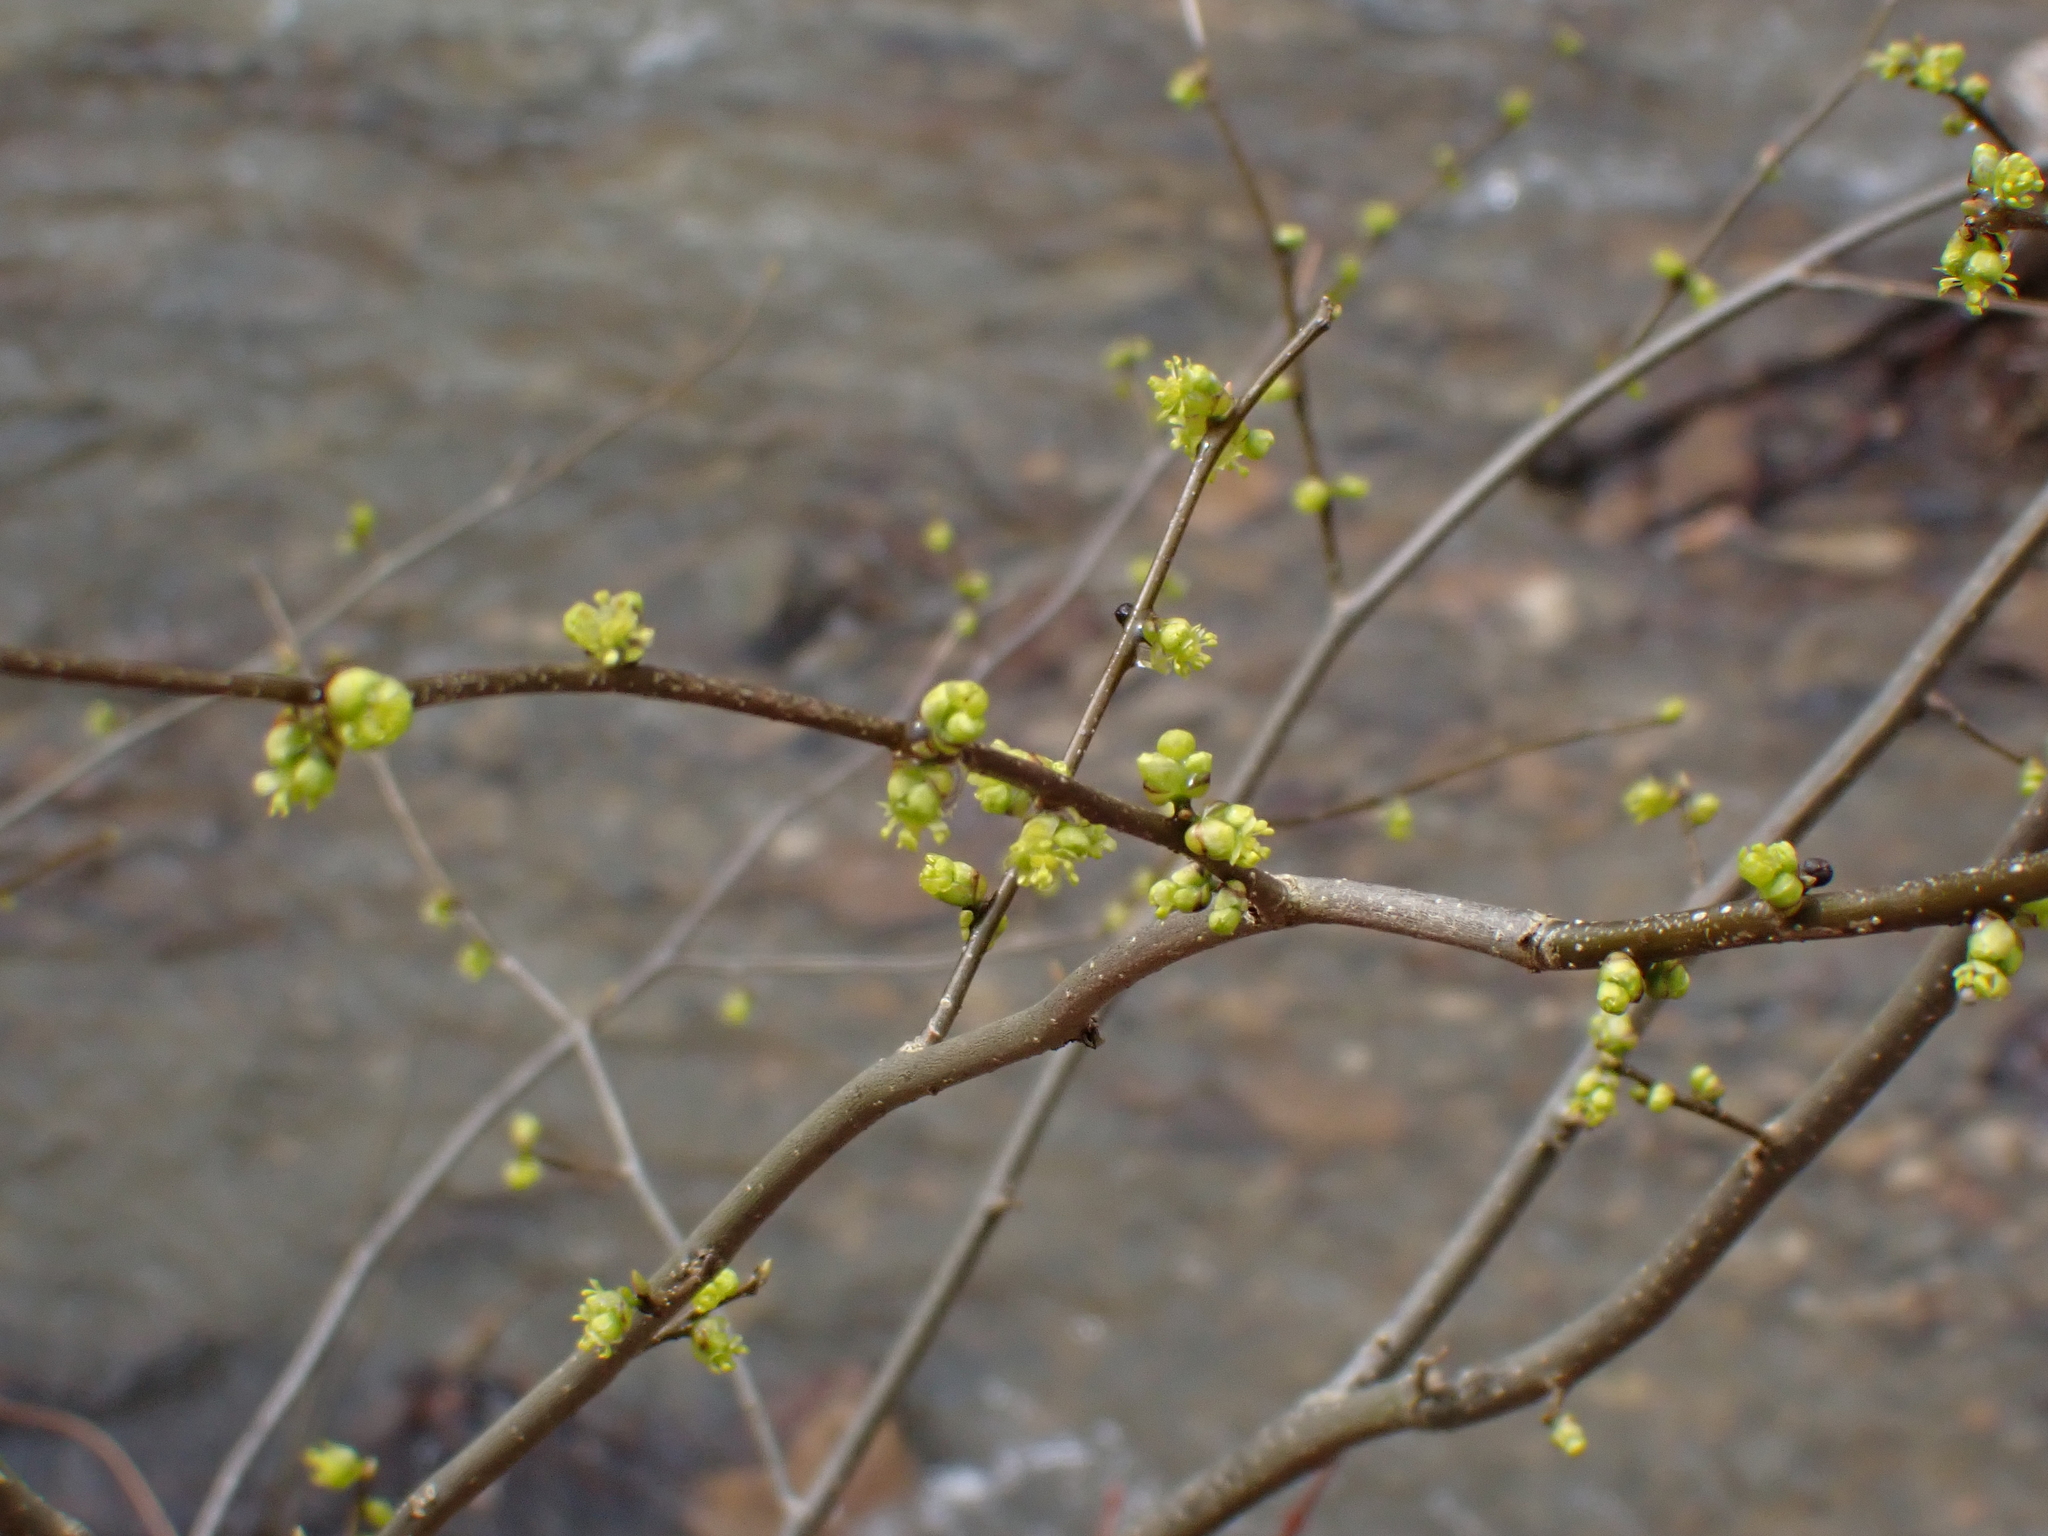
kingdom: Plantae
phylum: Tracheophyta
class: Magnoliopsida
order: Laurales
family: Lauraceae
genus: Lindera
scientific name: Lindera benzoin
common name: Spicebush
